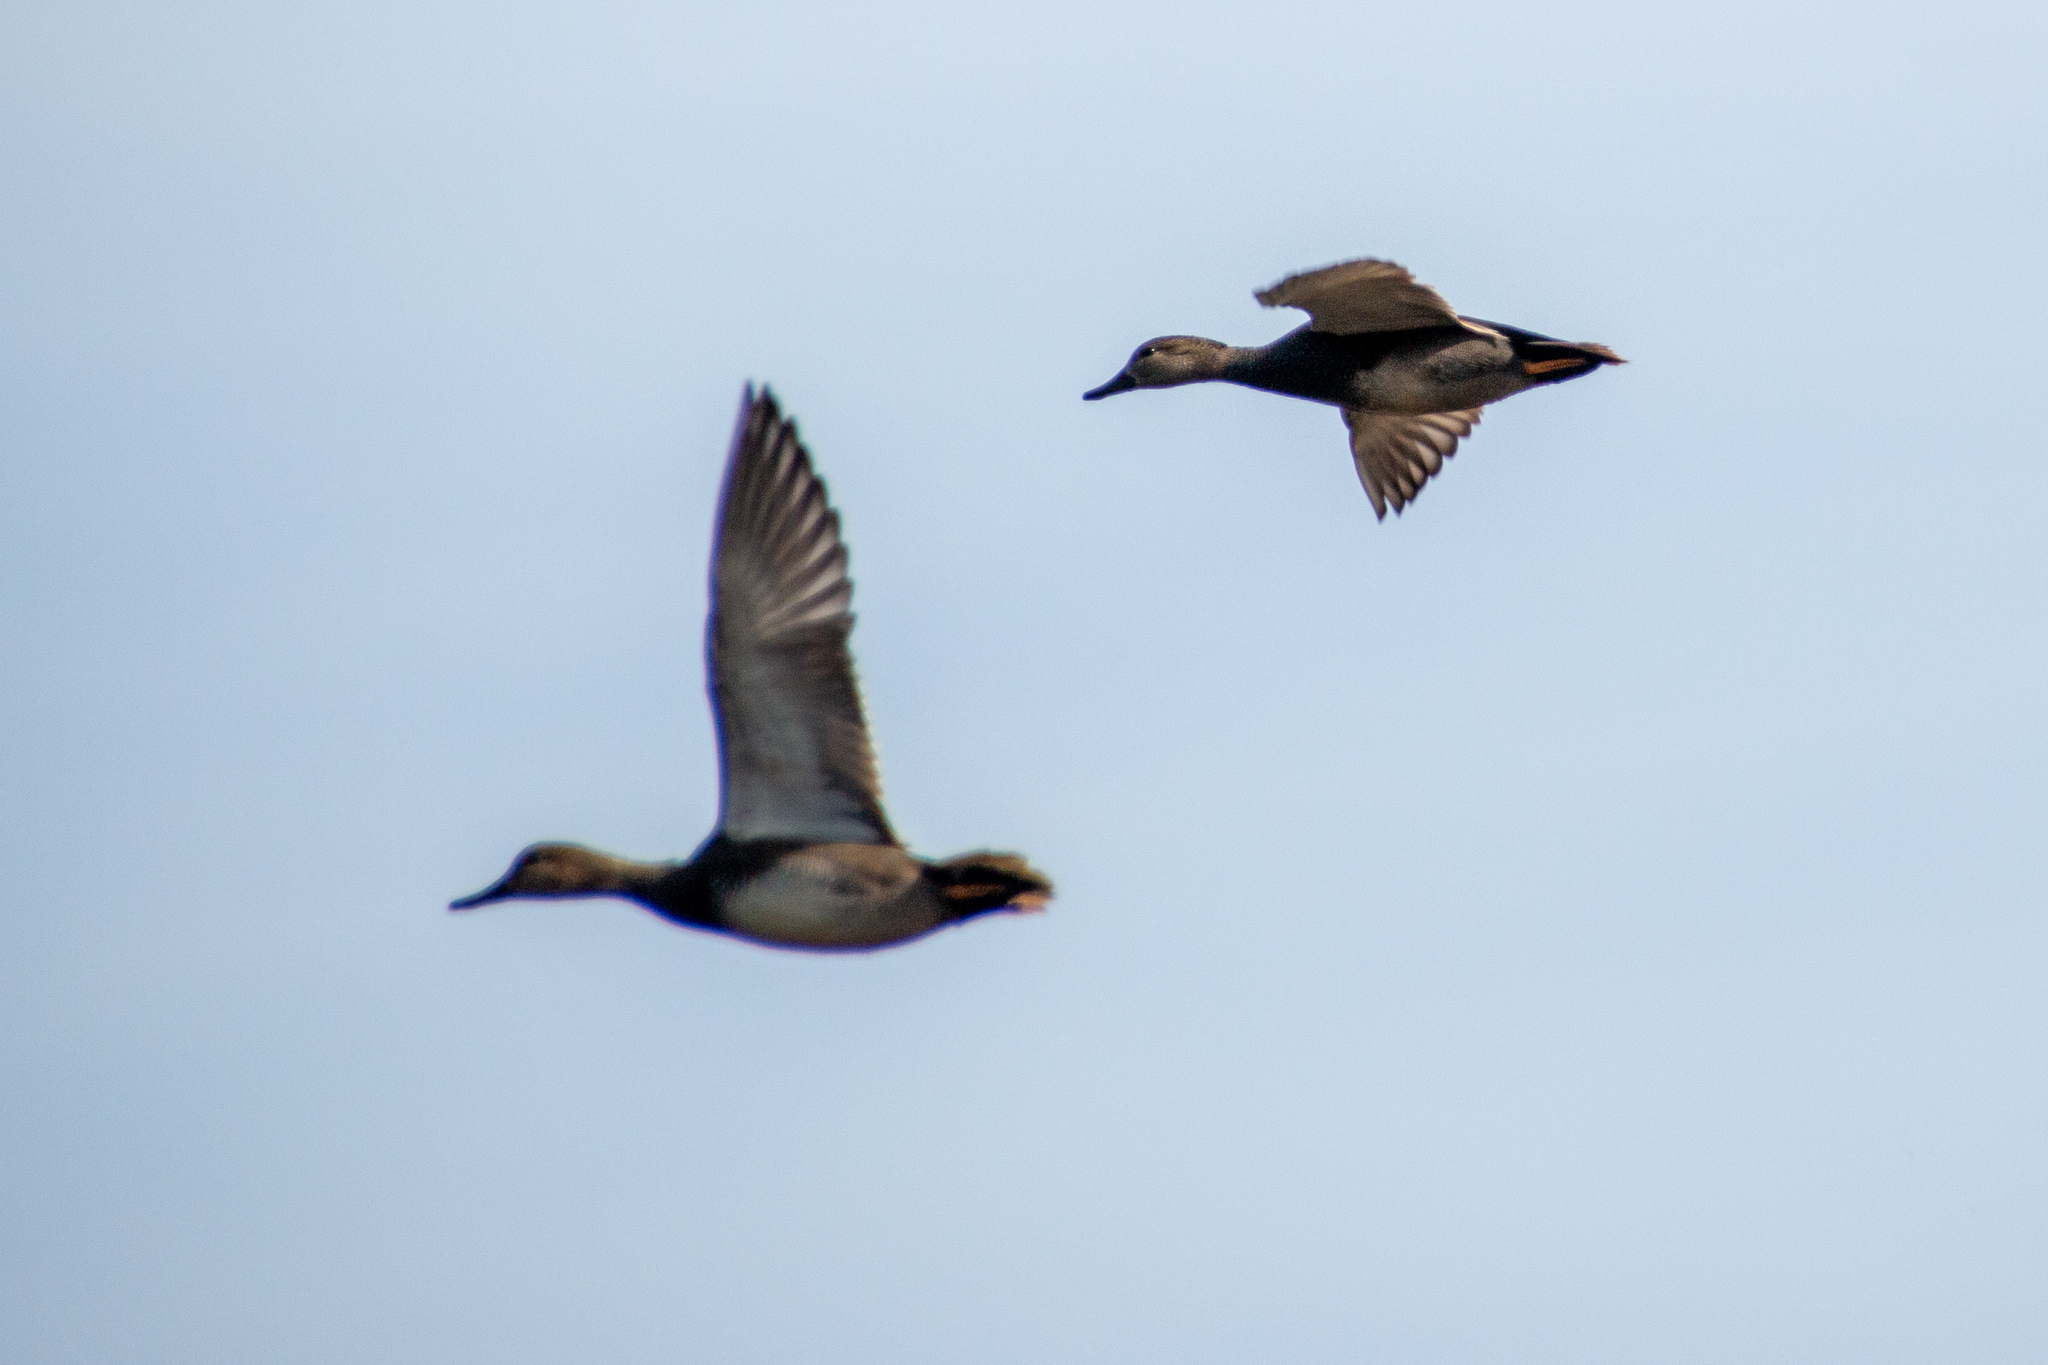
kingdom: Animalia
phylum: Chordata
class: Aves
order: Anseriformes
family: Anatidae
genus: Mareca
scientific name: Mareca strepera
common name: Gadwall
